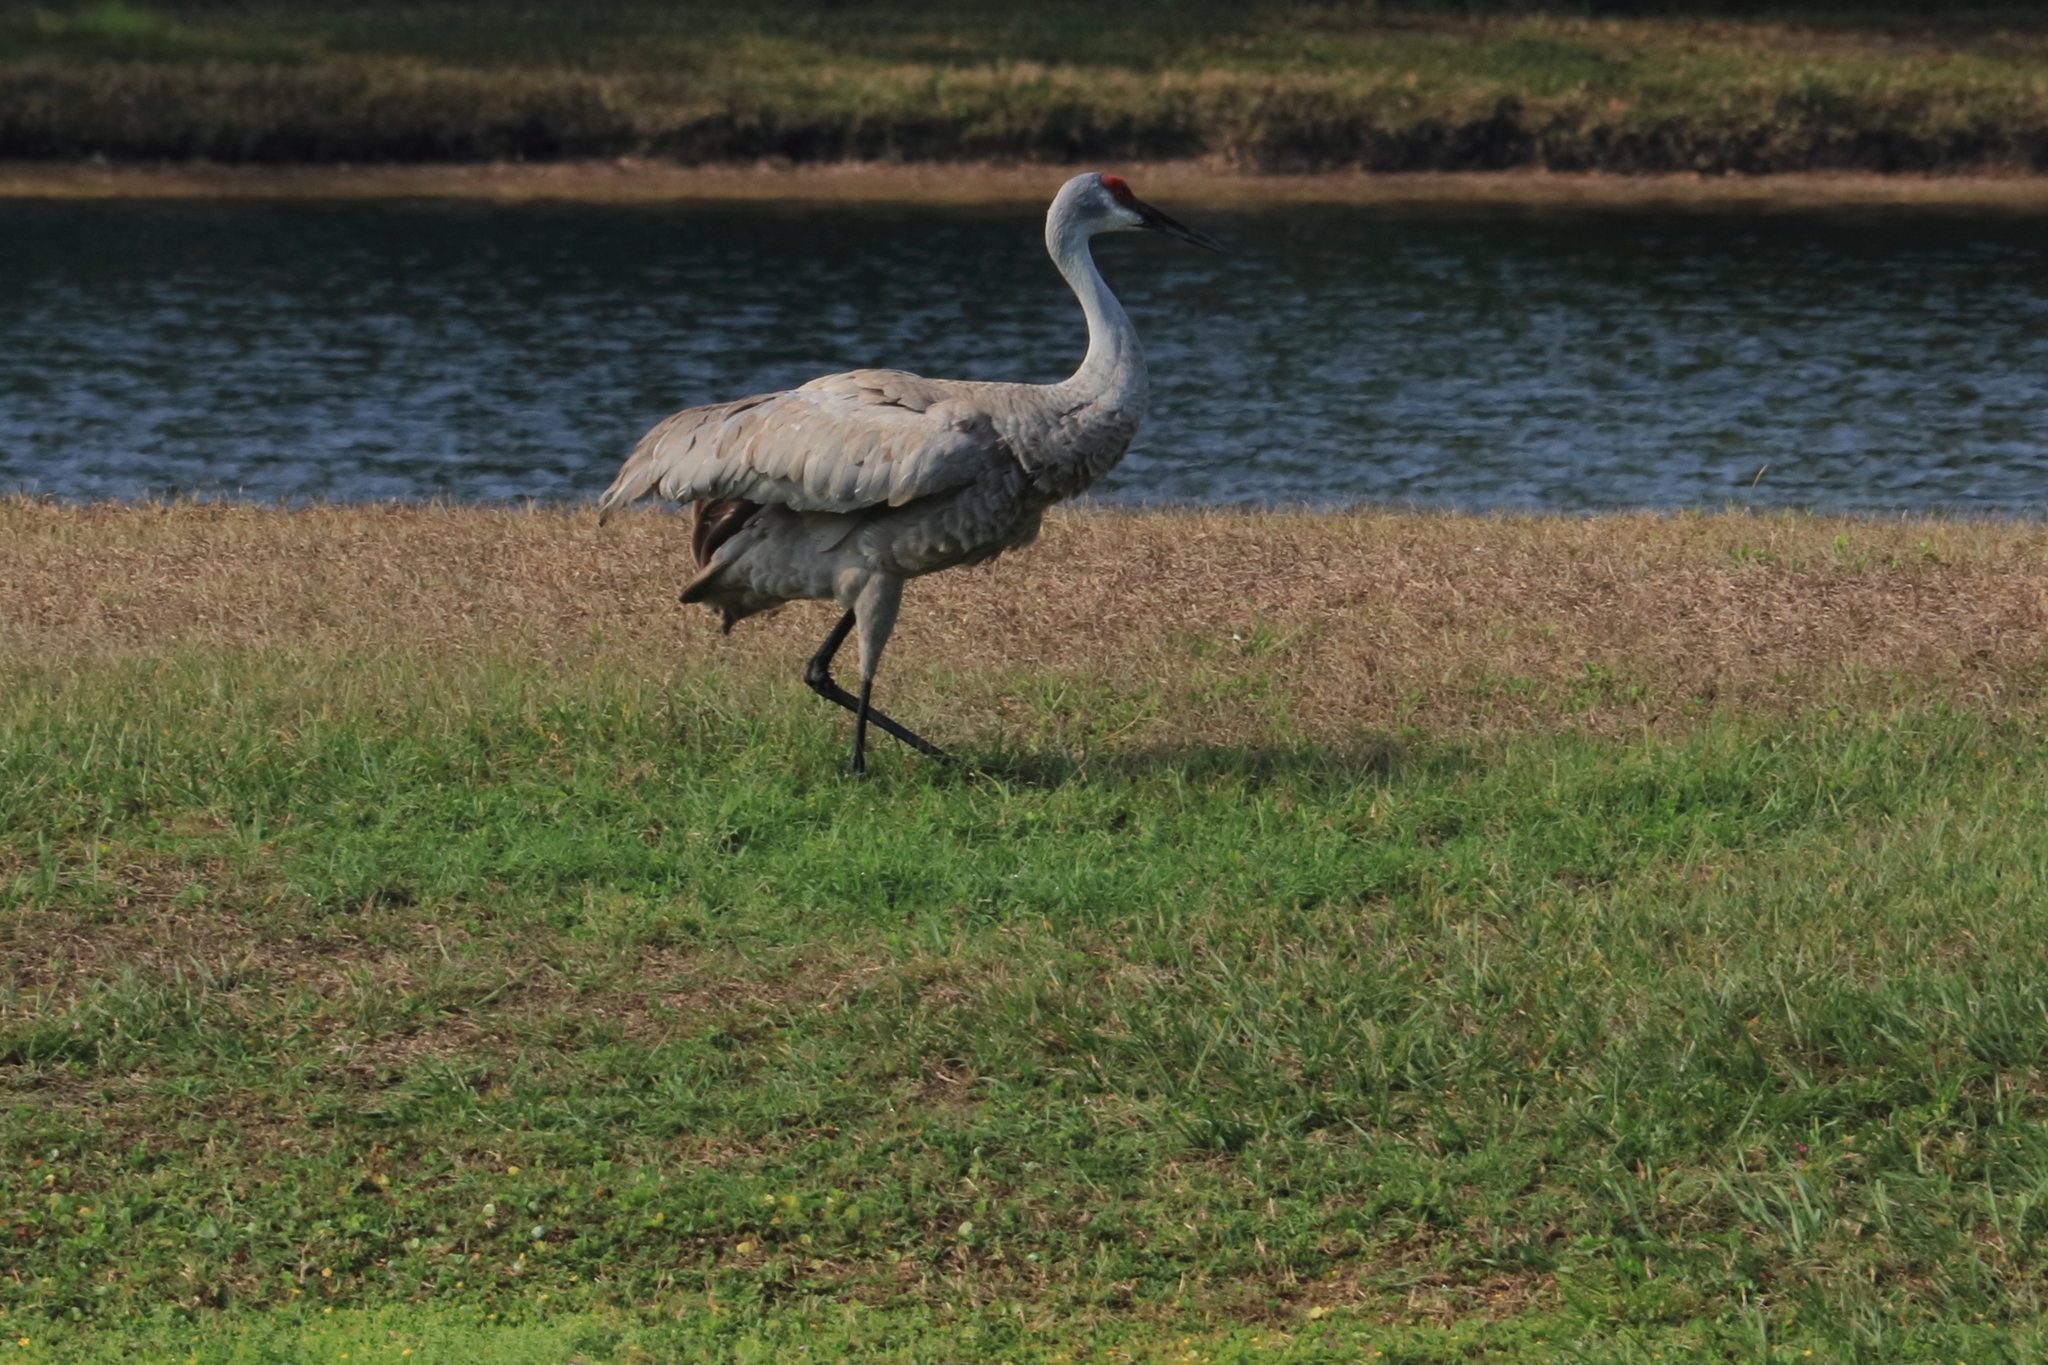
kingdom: Animalia
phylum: Chordata
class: Aves
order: Gruiformes
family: Gruidae
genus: Grus
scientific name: Grus canadensis
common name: Sandhill crane
